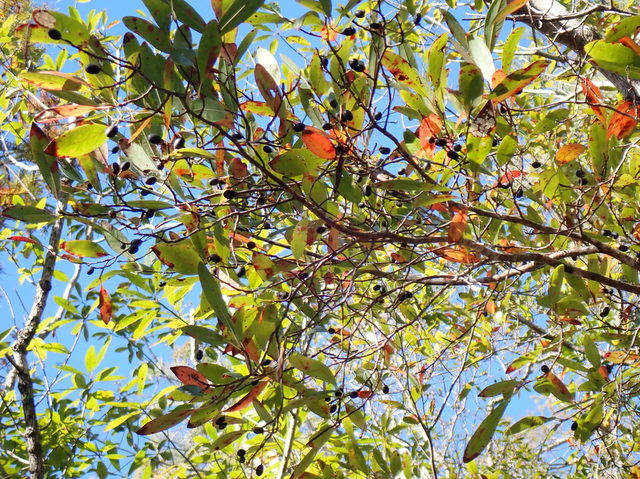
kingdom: Plantae
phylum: Tracheophyta
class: Magnoliopsida
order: Cornales
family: Nyssaceae
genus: Nyssa
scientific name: Nyssa biflora
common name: Swamp blackgum
